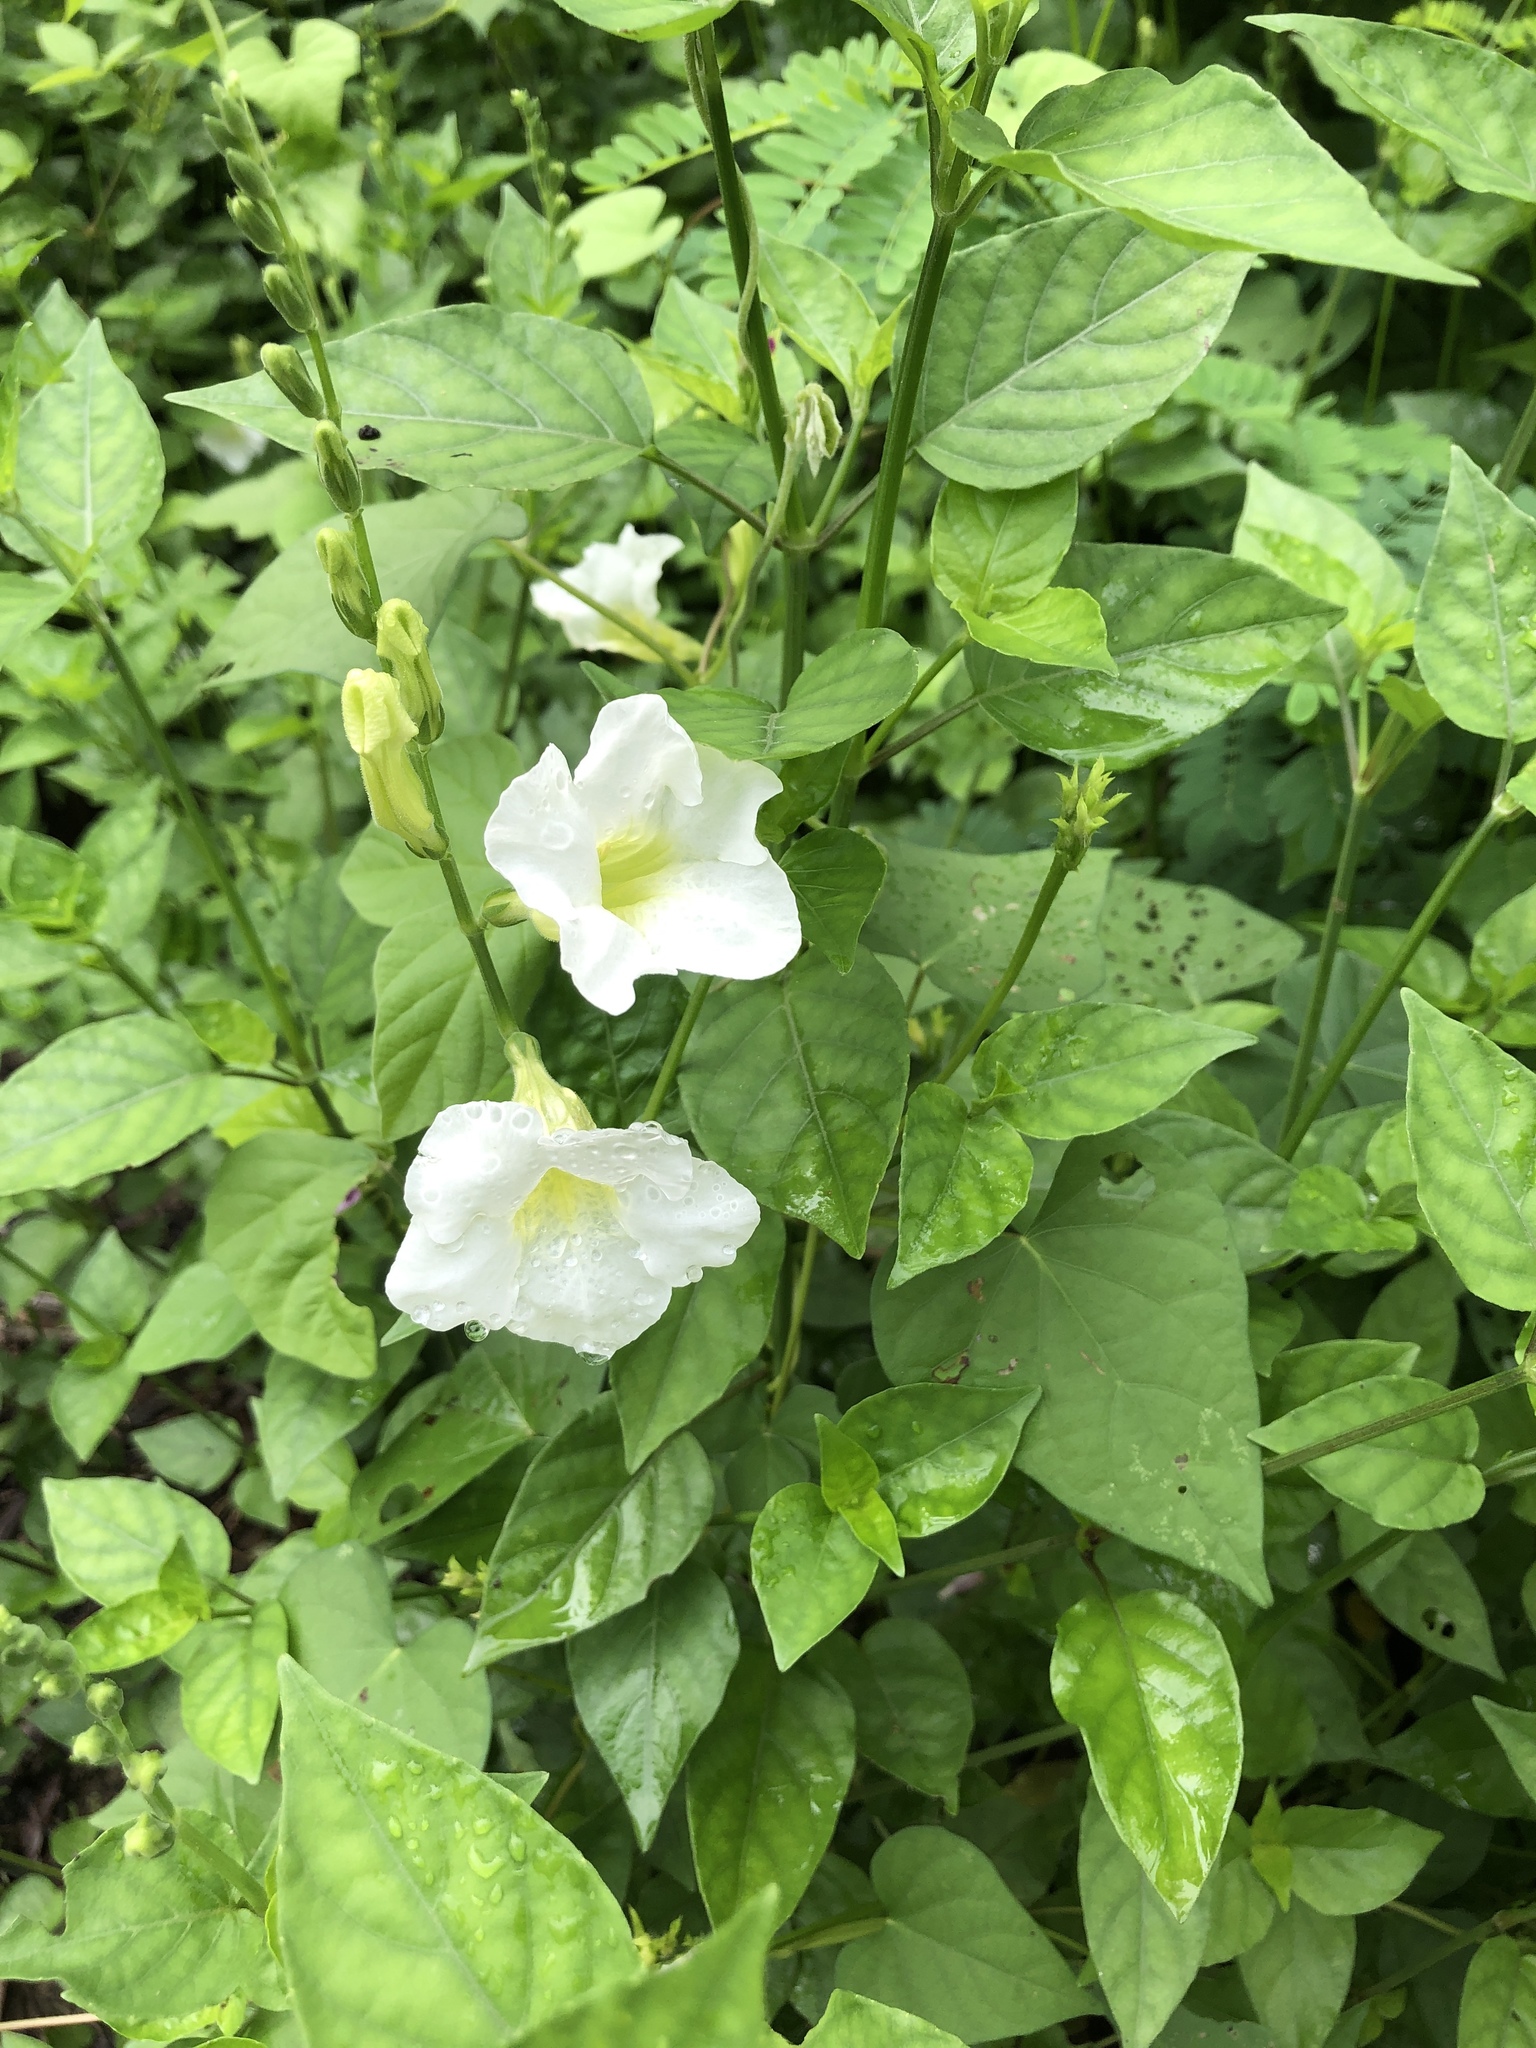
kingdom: Plantae
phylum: Tracheophyta
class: Magnoliopsida
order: Lamiales
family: Acanthaceae
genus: Asystasia
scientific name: Asystasia gangetica
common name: Chinese violet
